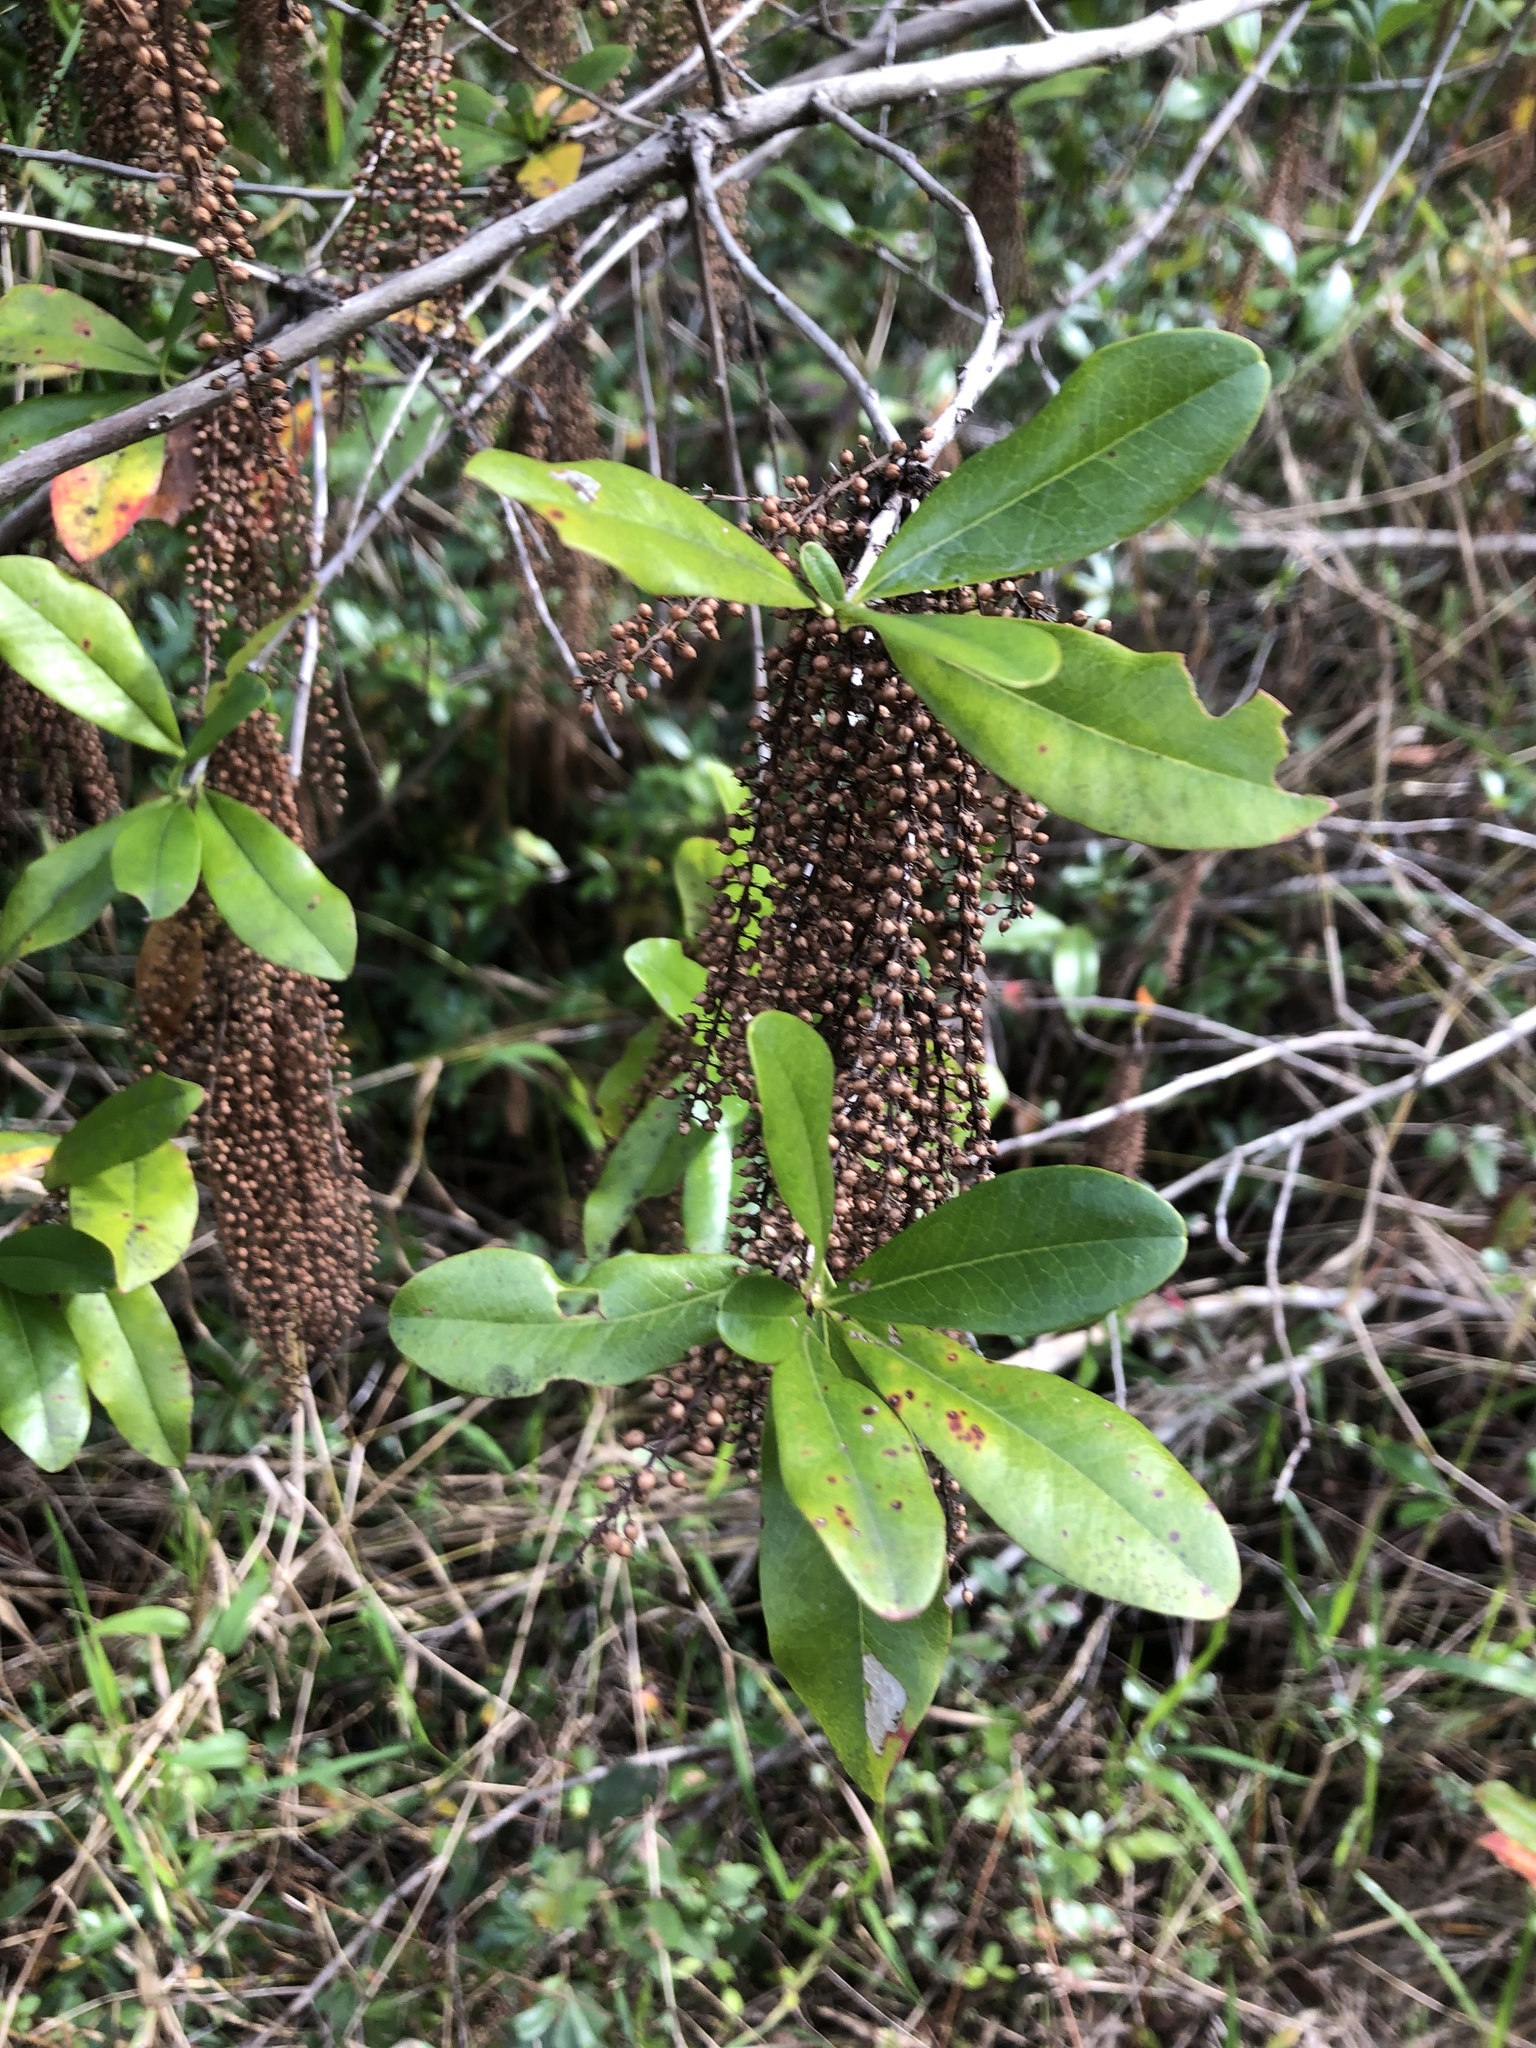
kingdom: Plantae
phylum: Tracheophyta
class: Magnoliopsida
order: Ericales
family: Cyrillaceae
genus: Cyrilla
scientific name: Cyrilla racemiflora
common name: Black titi
